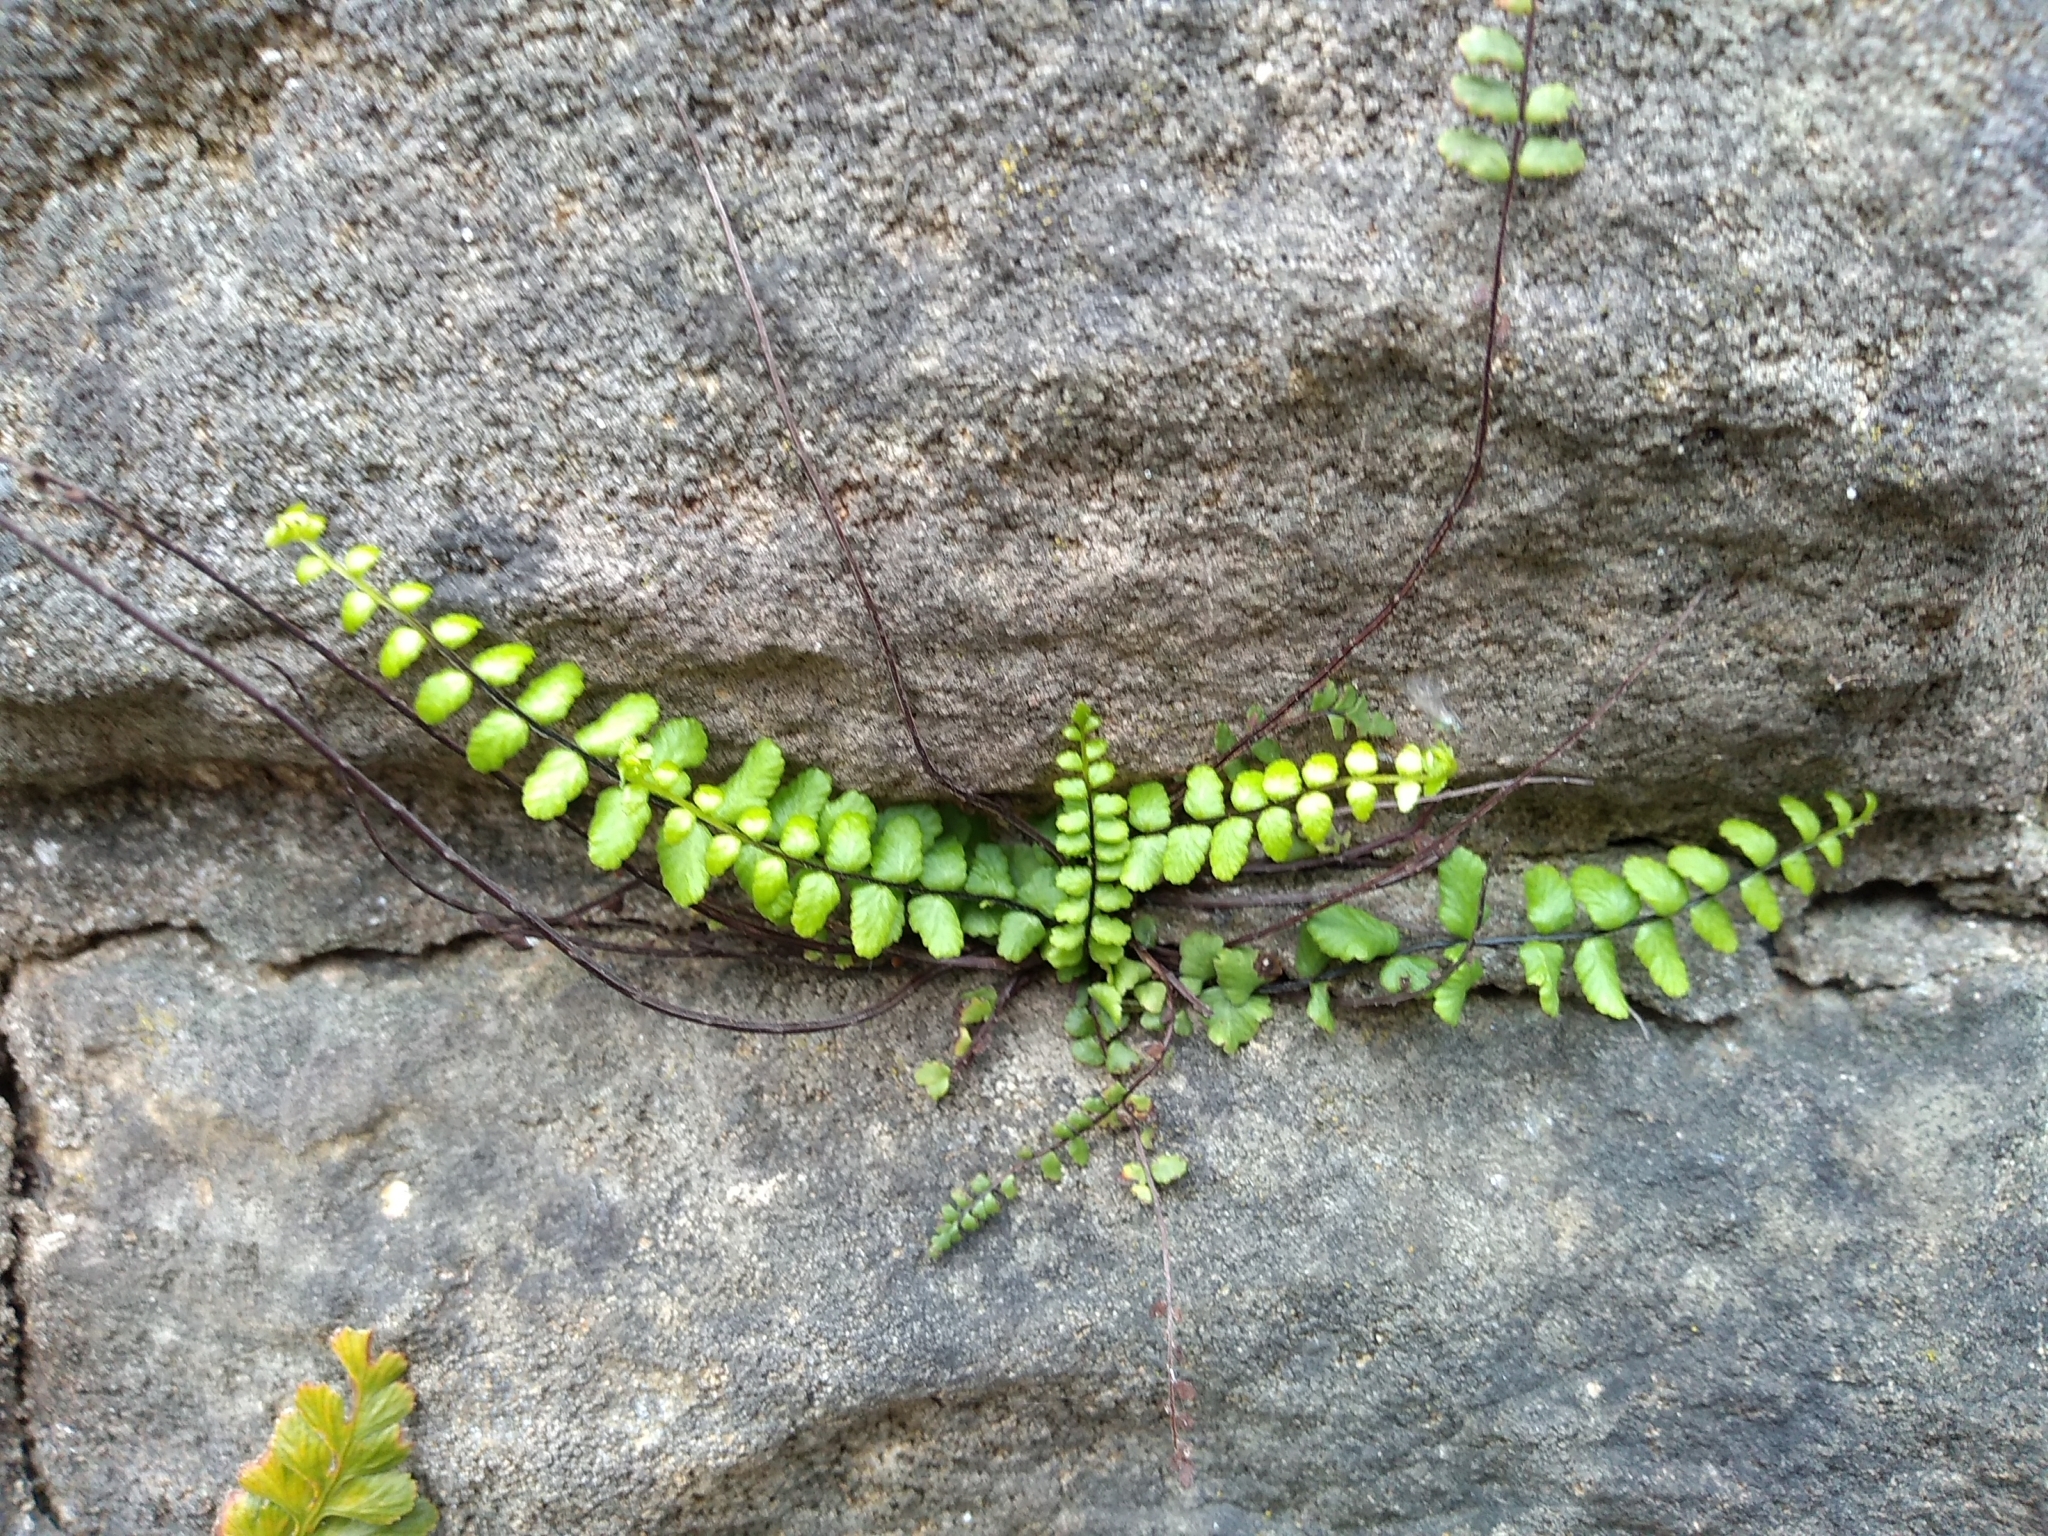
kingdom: Plantae
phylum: Tracheophyta
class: Polypodiopsida
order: Polypodiales
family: Aspleniaceae
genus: Asplenium
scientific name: Asplenium trichomanes
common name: Maidenhair spleenwort
